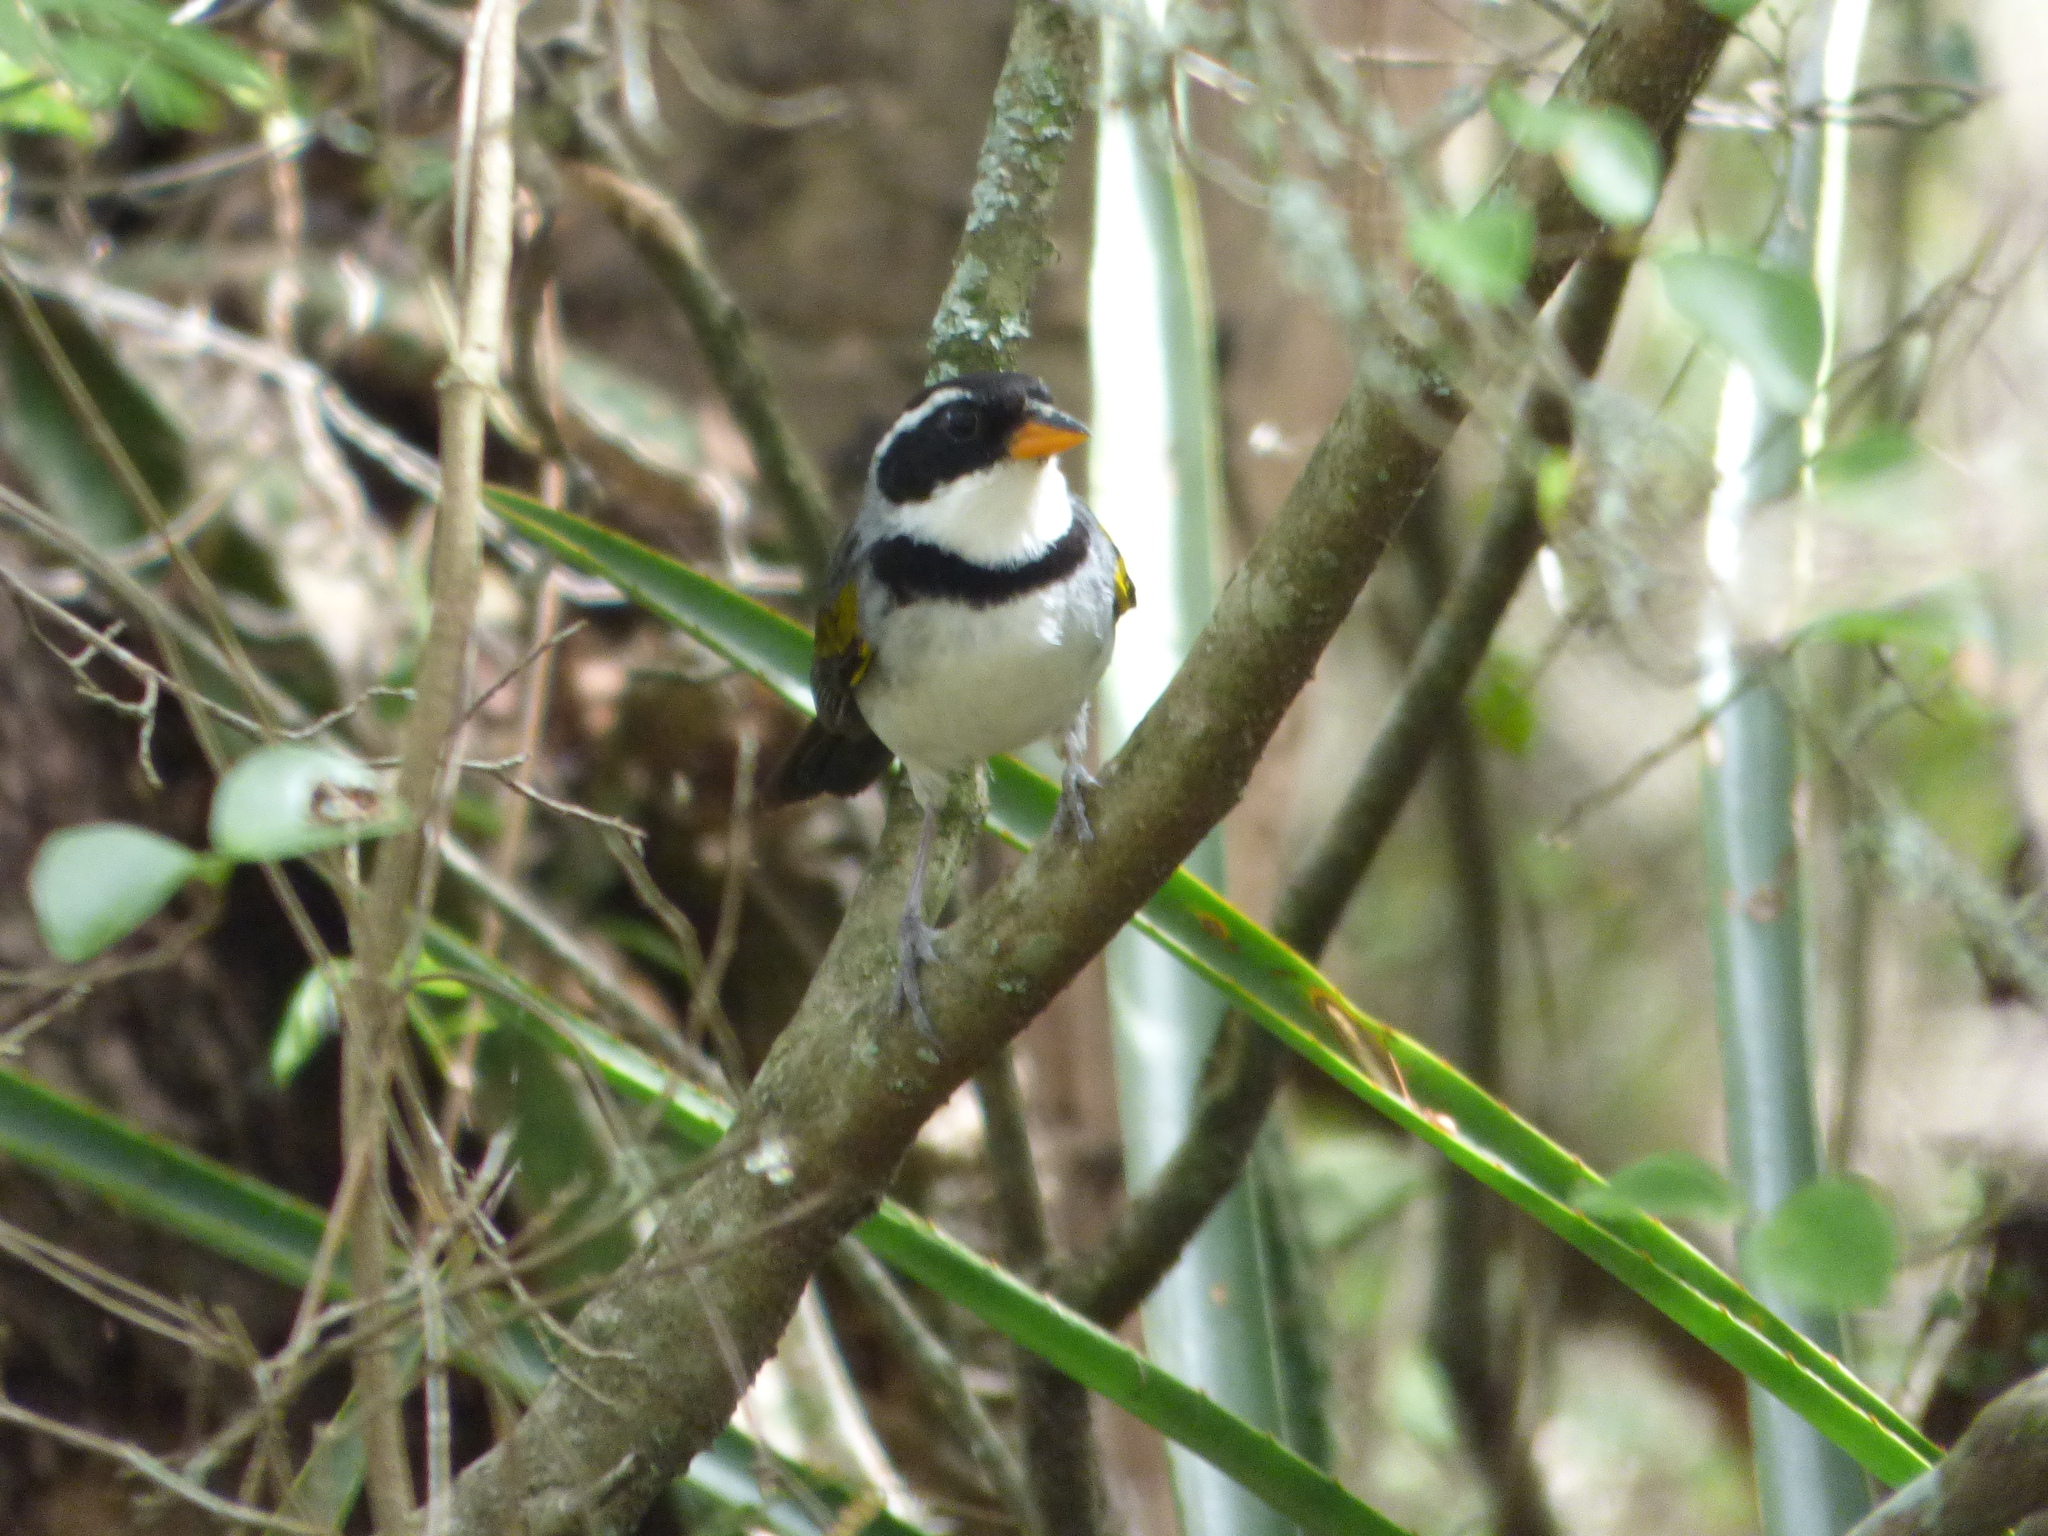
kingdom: Animalia
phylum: Chordata
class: Aves
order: Passeriformes
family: Passerellidae
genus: Arremon
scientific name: Arremon flavirostris
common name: Saffron-billed sparrow
